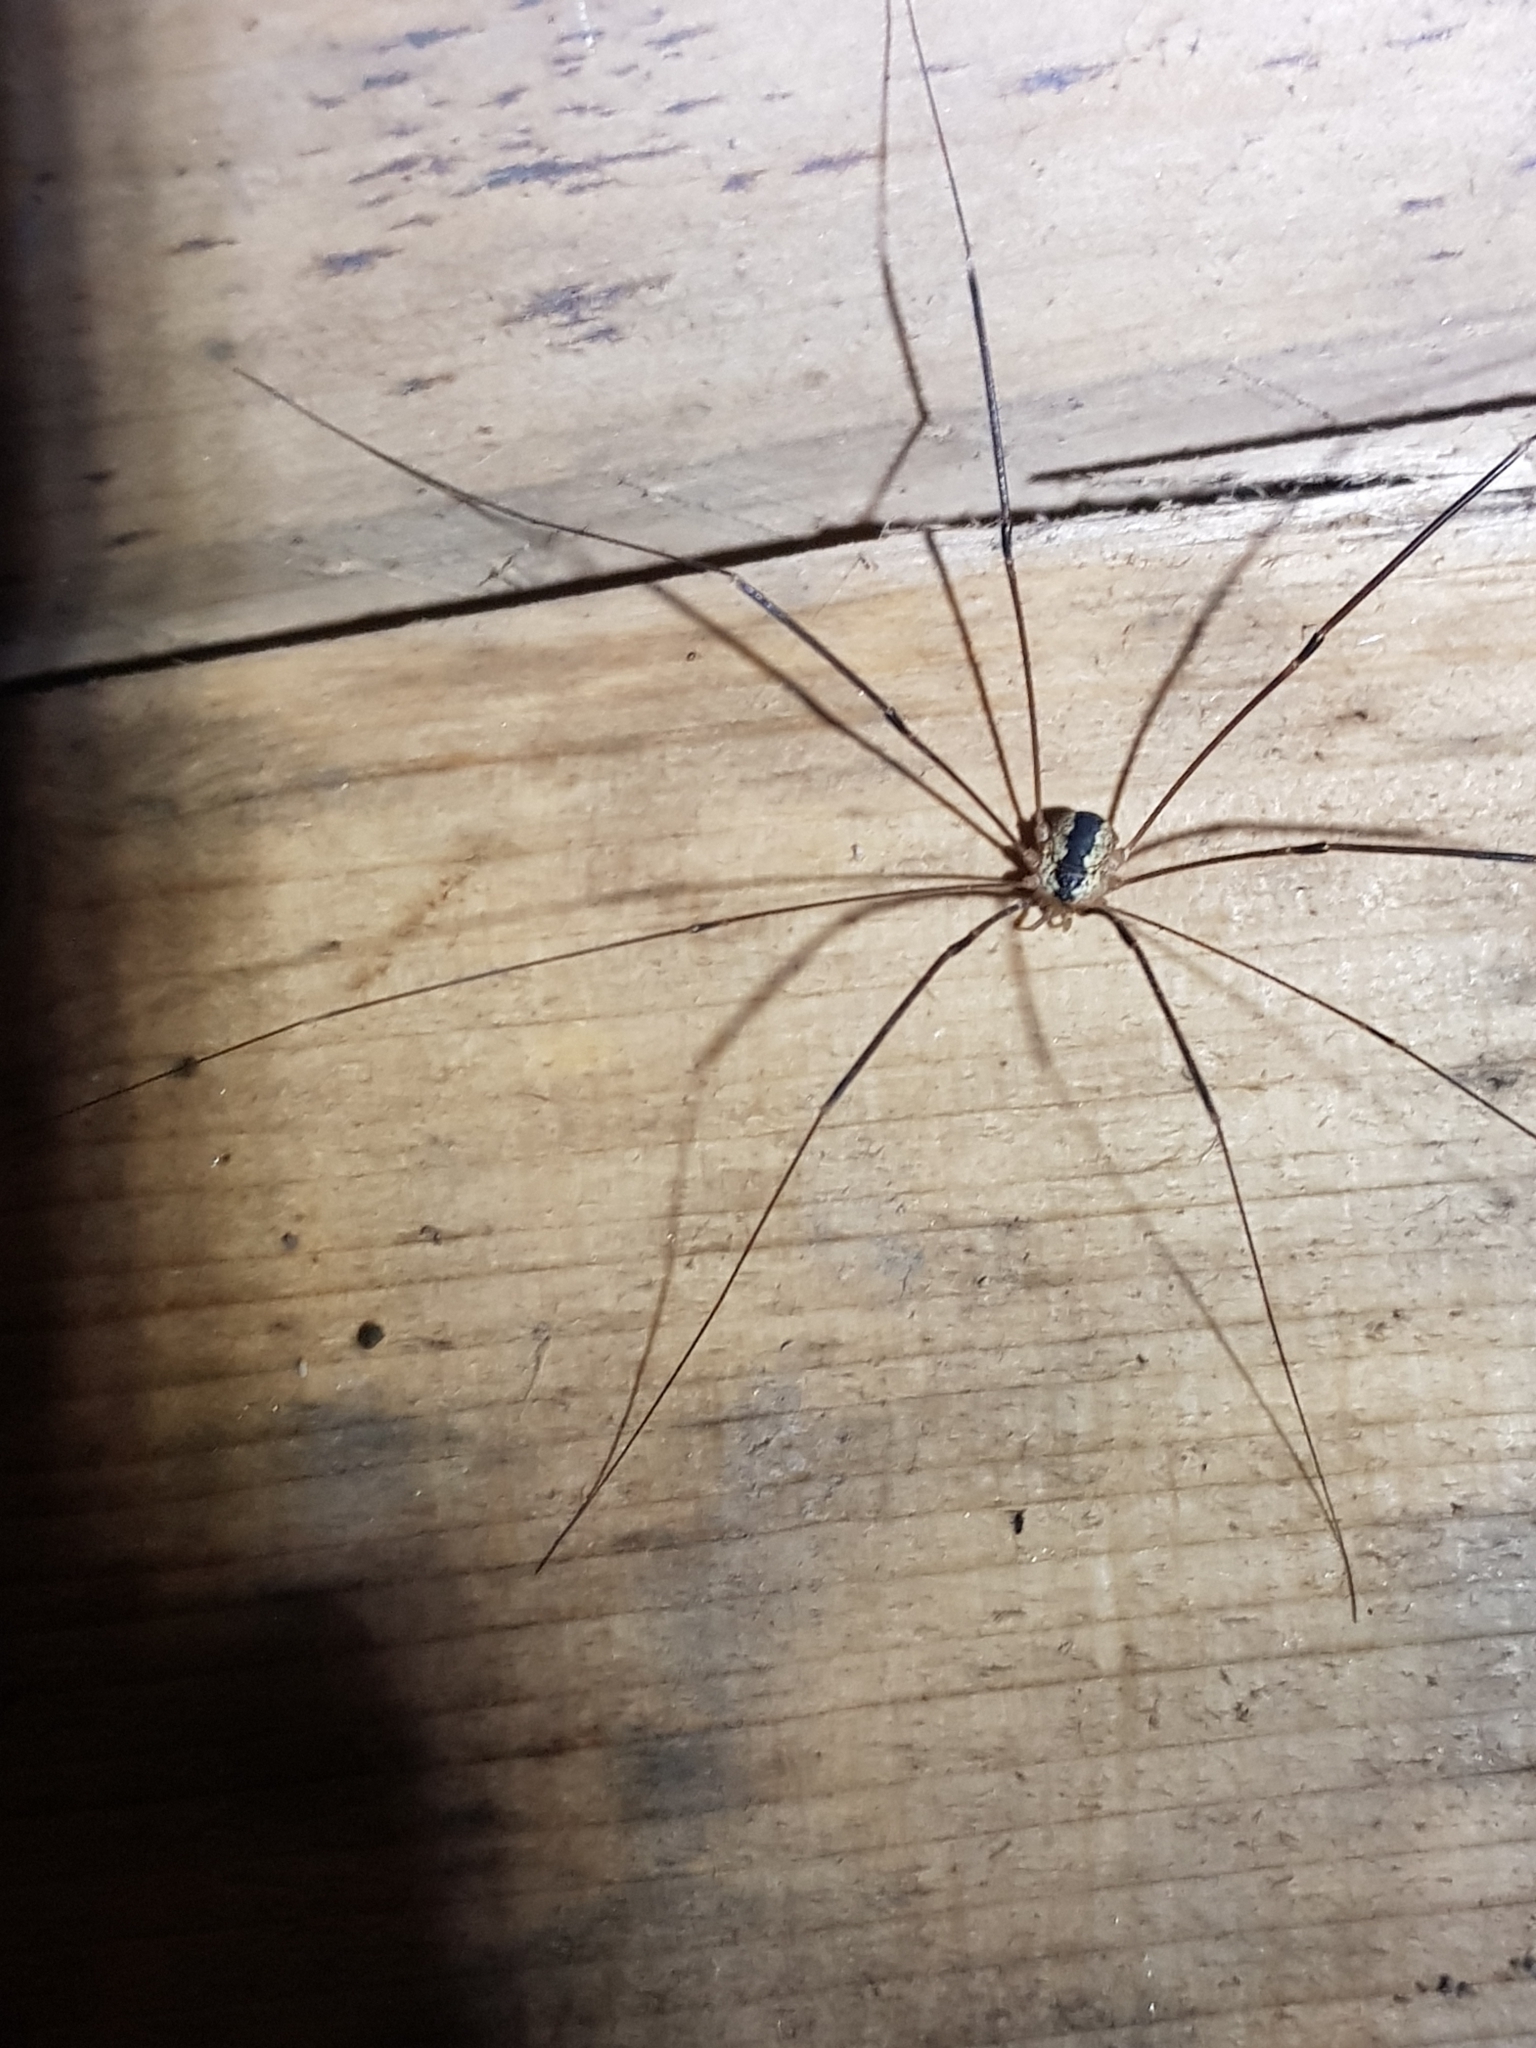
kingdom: Animalia
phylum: Arthropoda
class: Arachnida
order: Opiliones
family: Sclerosomatidae
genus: Leiobunum
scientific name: Leiobunum religiosum
